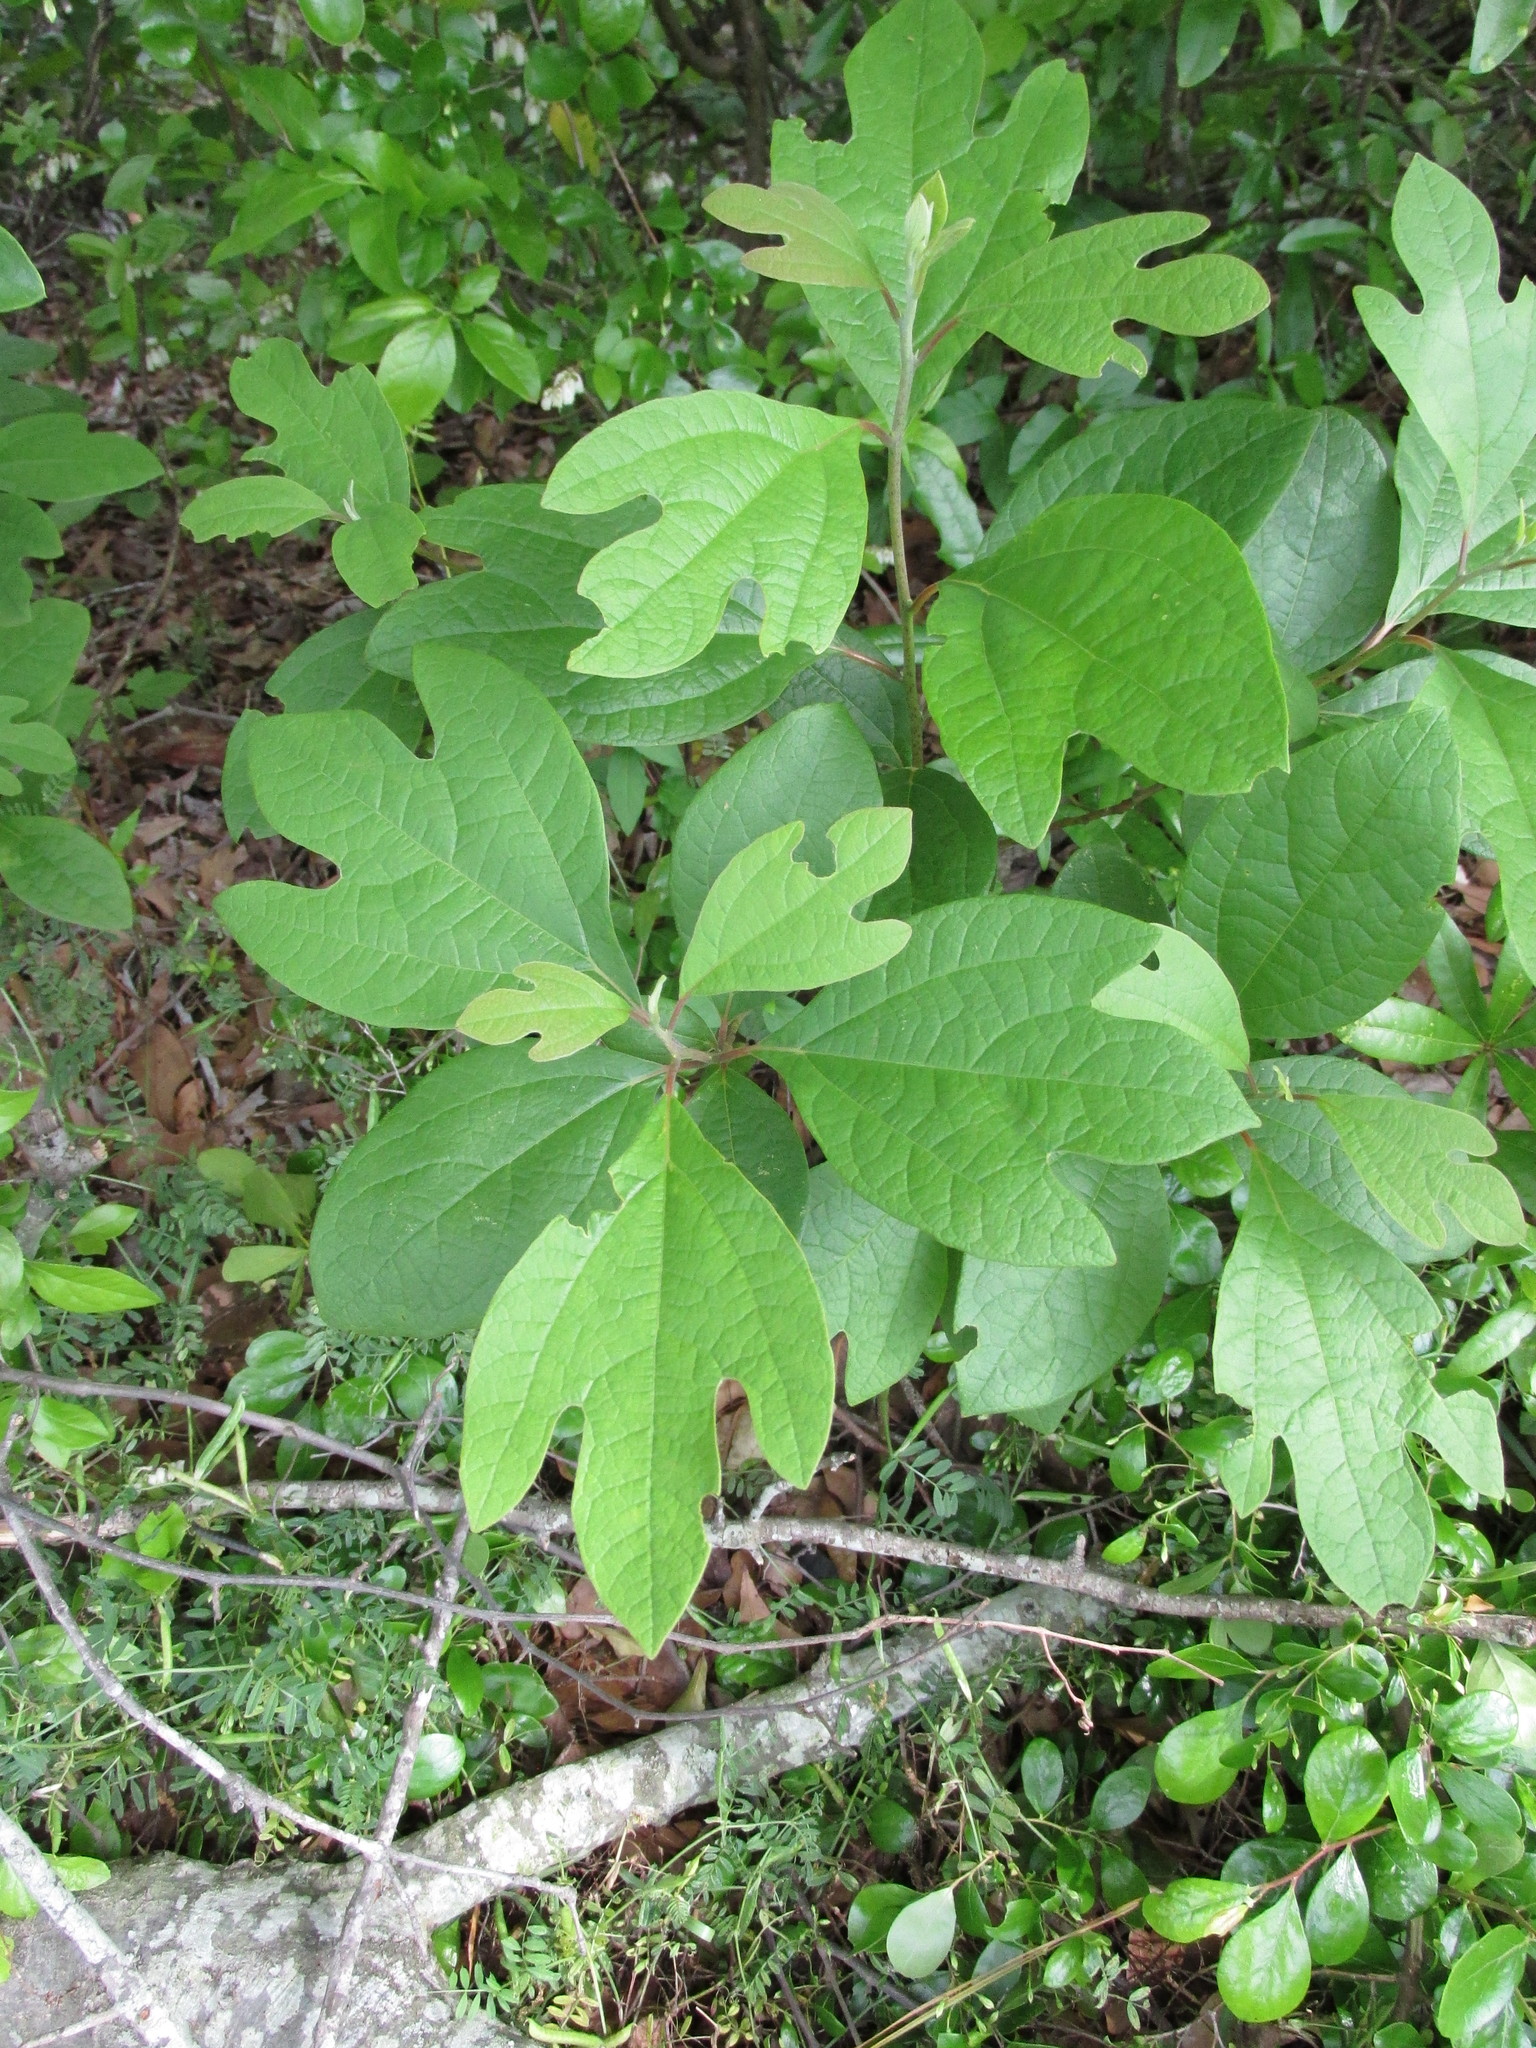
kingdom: Plantae
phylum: Tracheophyta
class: Magnoliopsida
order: Laurales
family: Lauraceae
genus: Sassafras
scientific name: Sassafras albidum
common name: Sassafras
